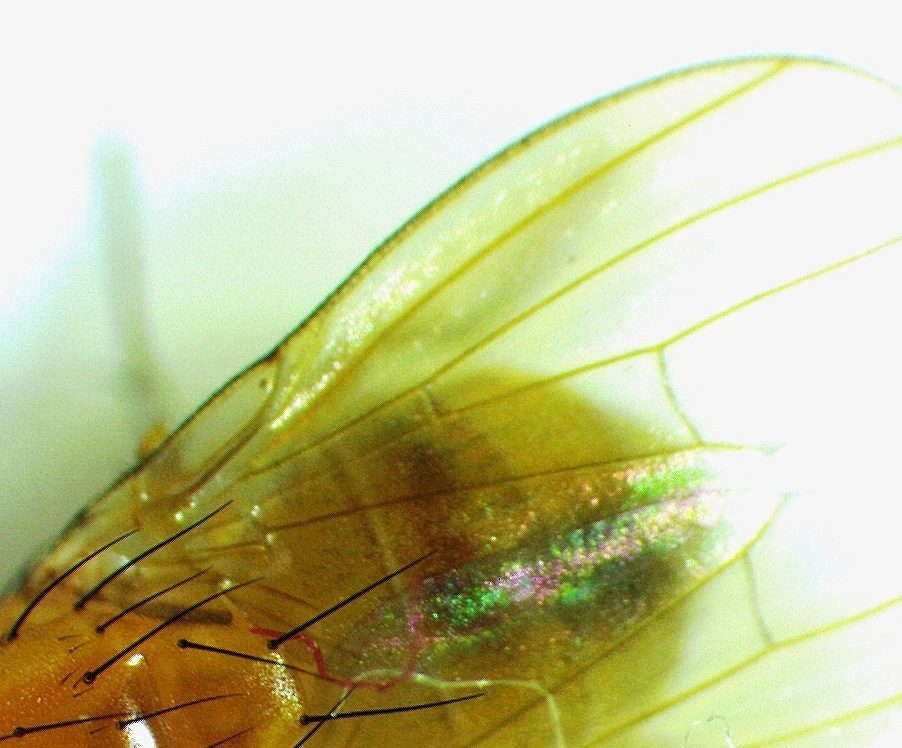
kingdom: Animalia
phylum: Arthropoda
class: Insecta
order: Diptera
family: Lauxaniidae
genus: Neogriphoneura
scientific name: Neogriphoneura sordida
